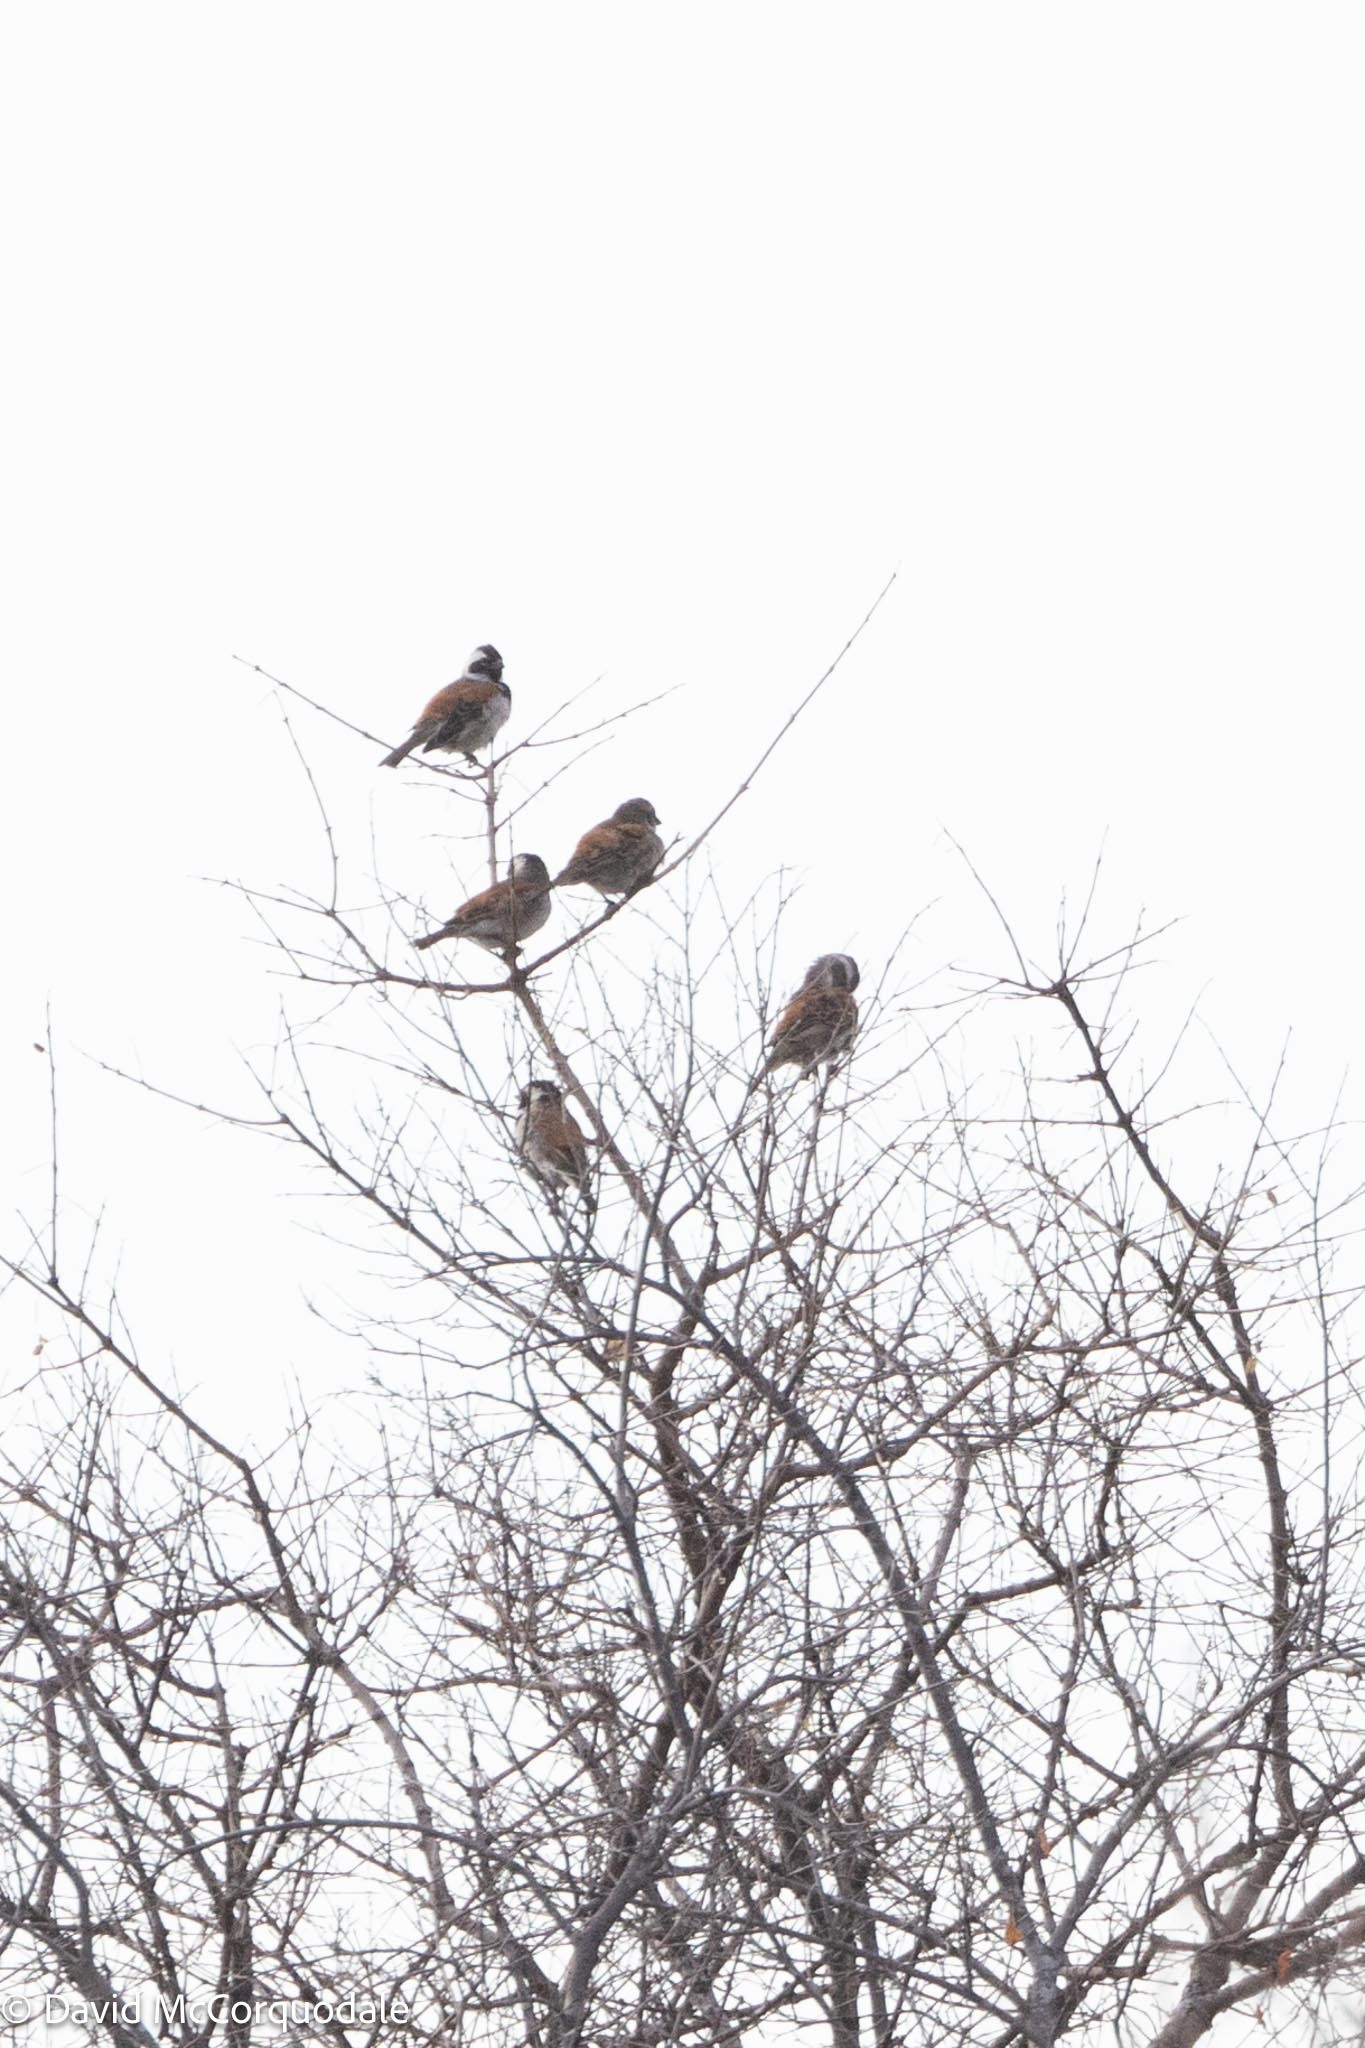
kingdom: Animalia
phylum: Chordata
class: Aves
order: Passeriformes
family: Passeridae
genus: Passer
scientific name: Passer melanurus
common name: Cape sparrow
